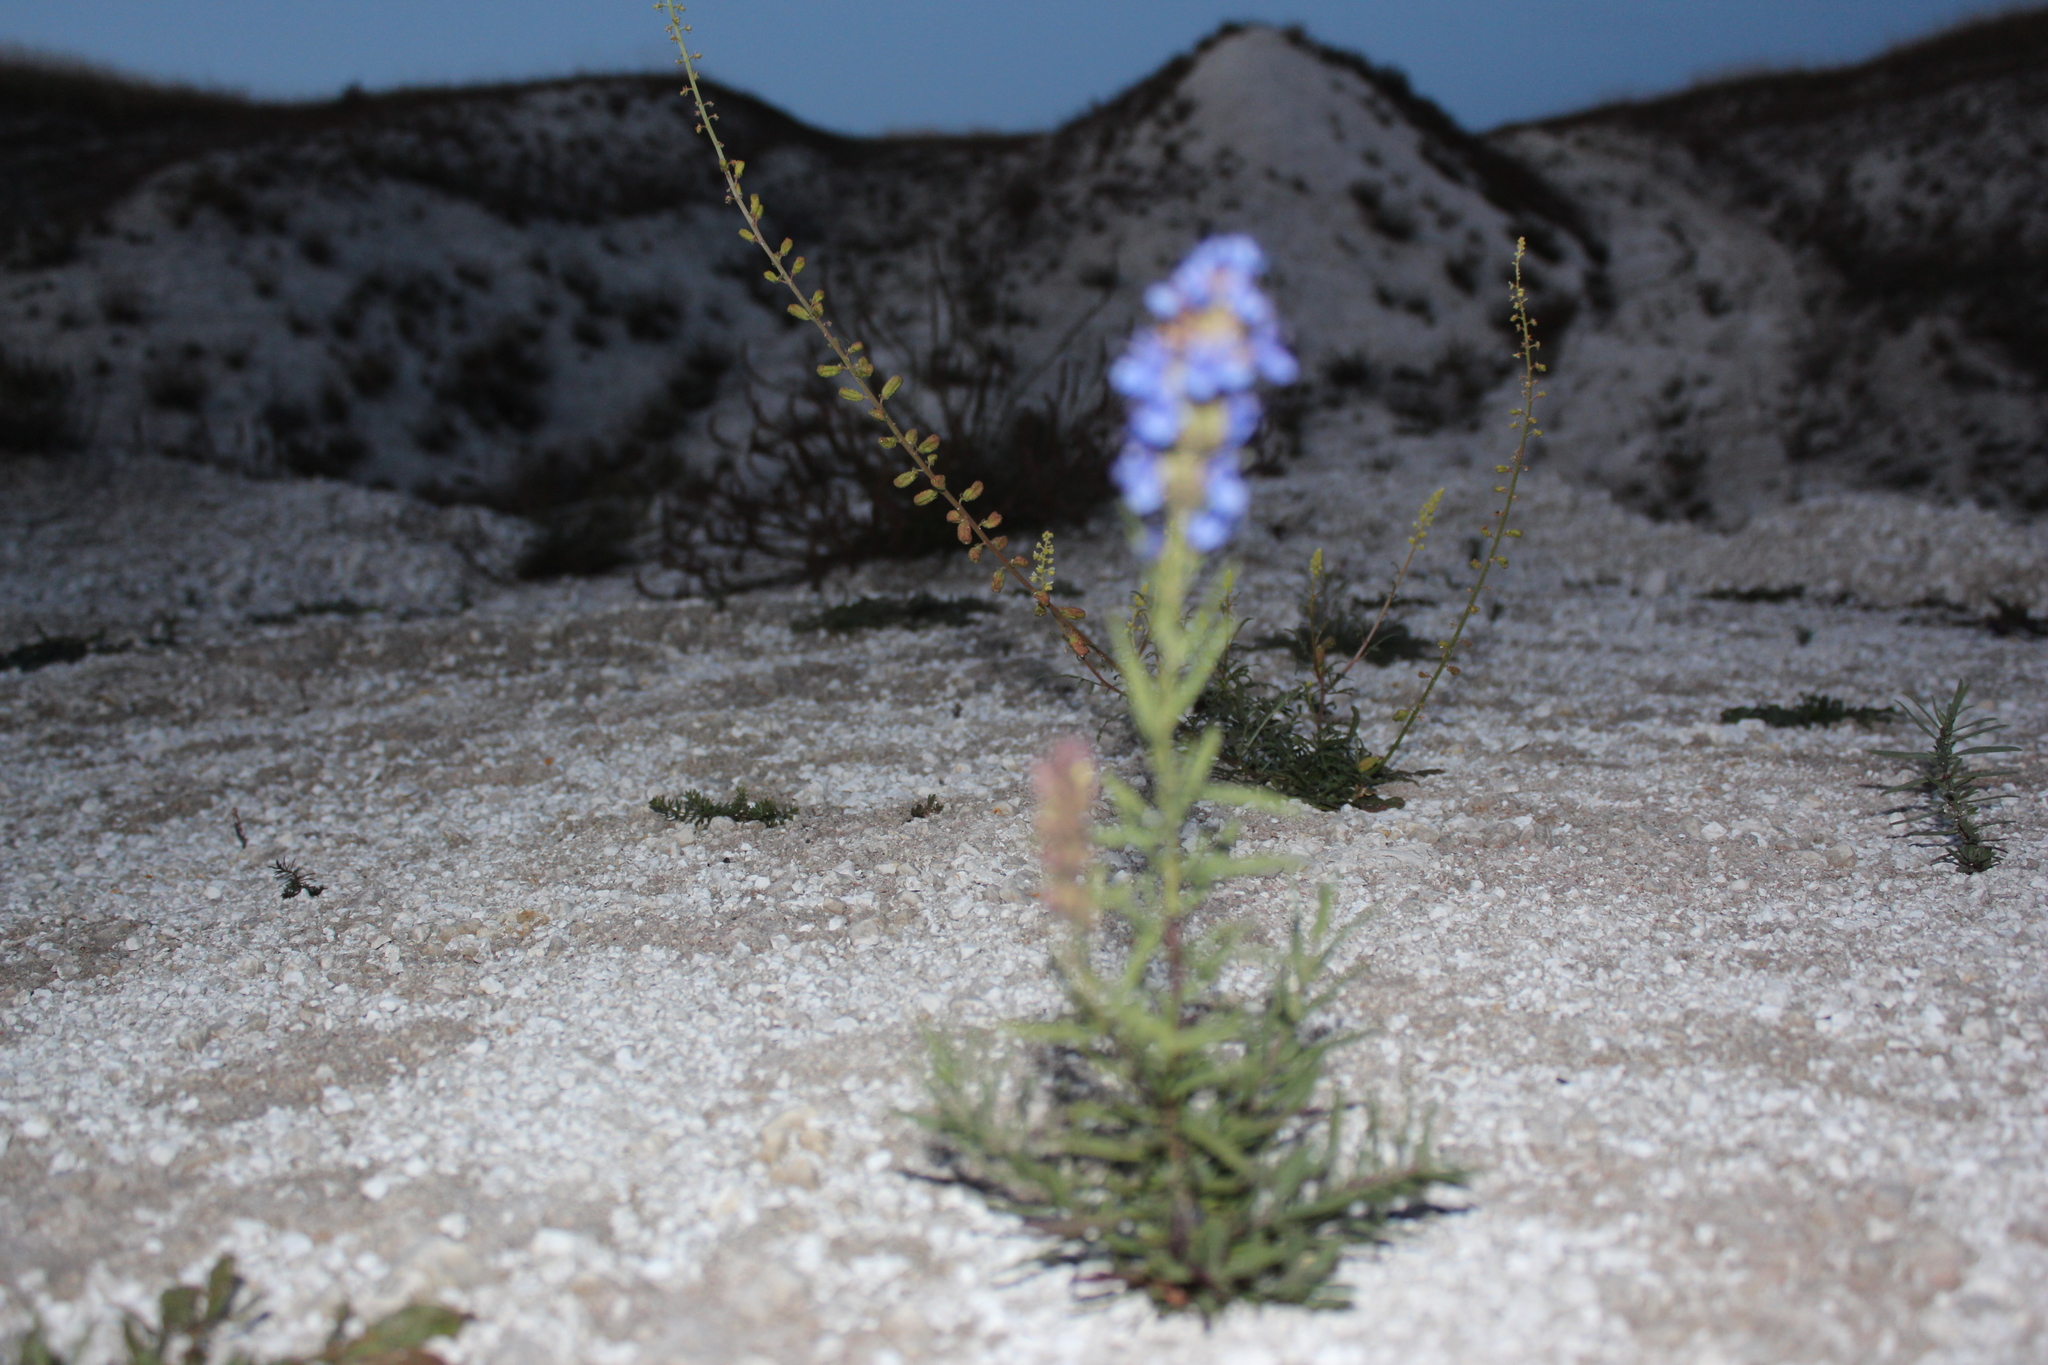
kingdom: Plantae
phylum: Tracheophyta
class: Magnoliopsida
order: Lamiales
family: Lamiaceae
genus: Hyssopus
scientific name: Hyssopus officinalis
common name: Hyssop
